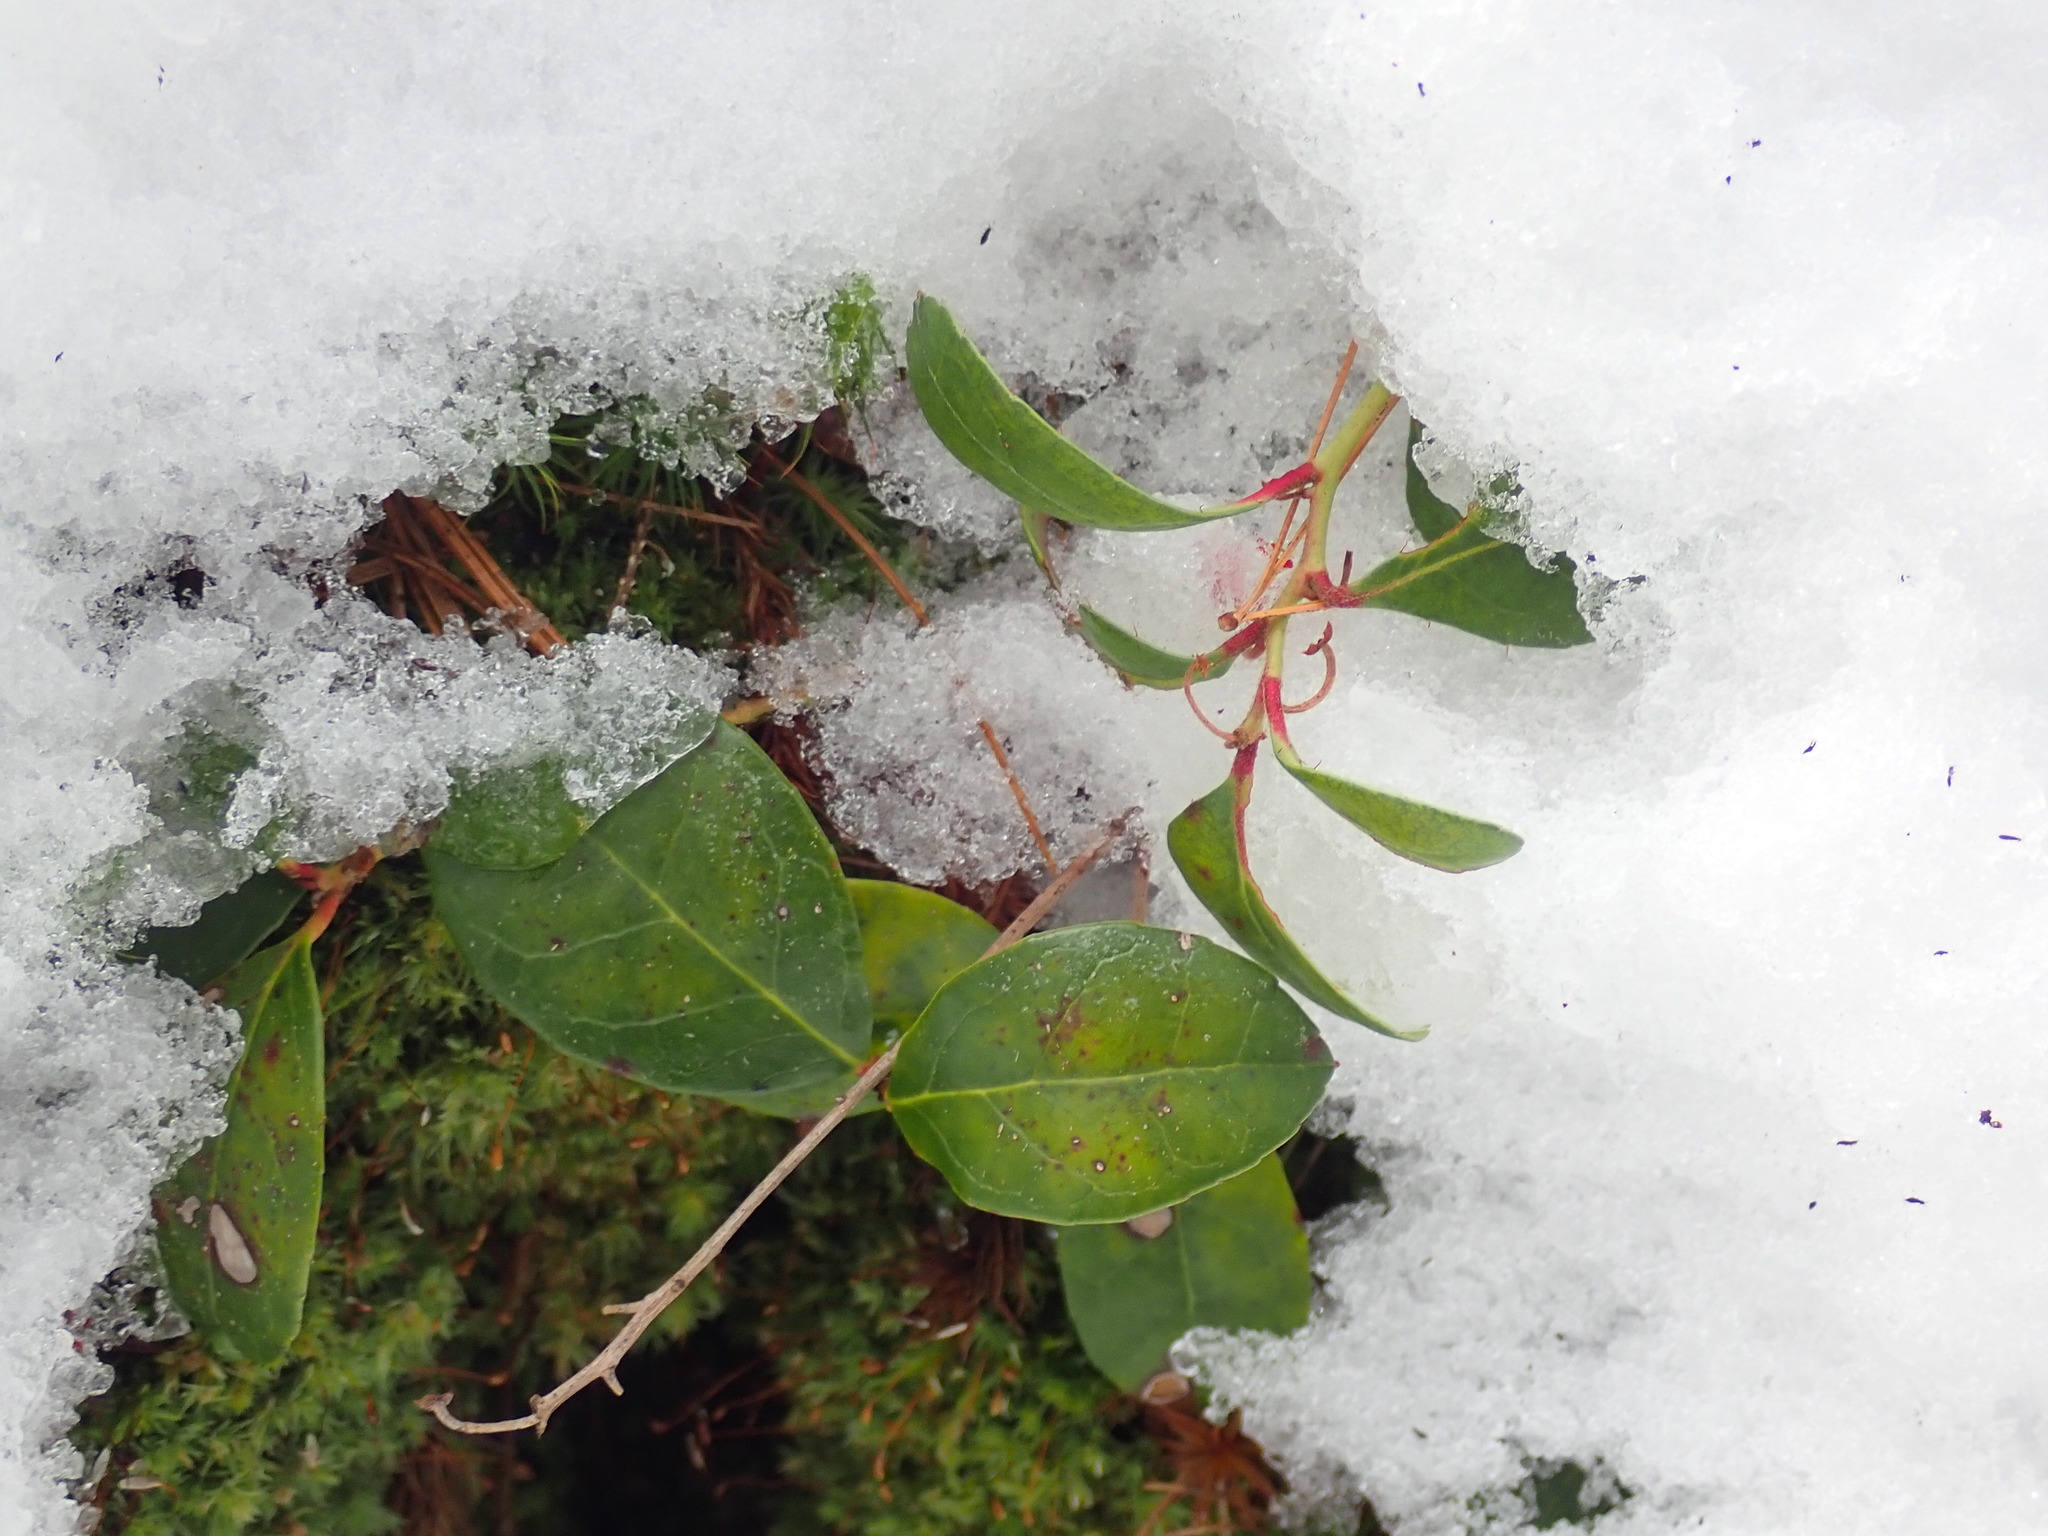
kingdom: Plantae
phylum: Tracheophyta
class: Magnoliopsida
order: Ericales
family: Ericaceae
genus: Gaultheria
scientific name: Gaultheria procumbens
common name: Checkerberry
